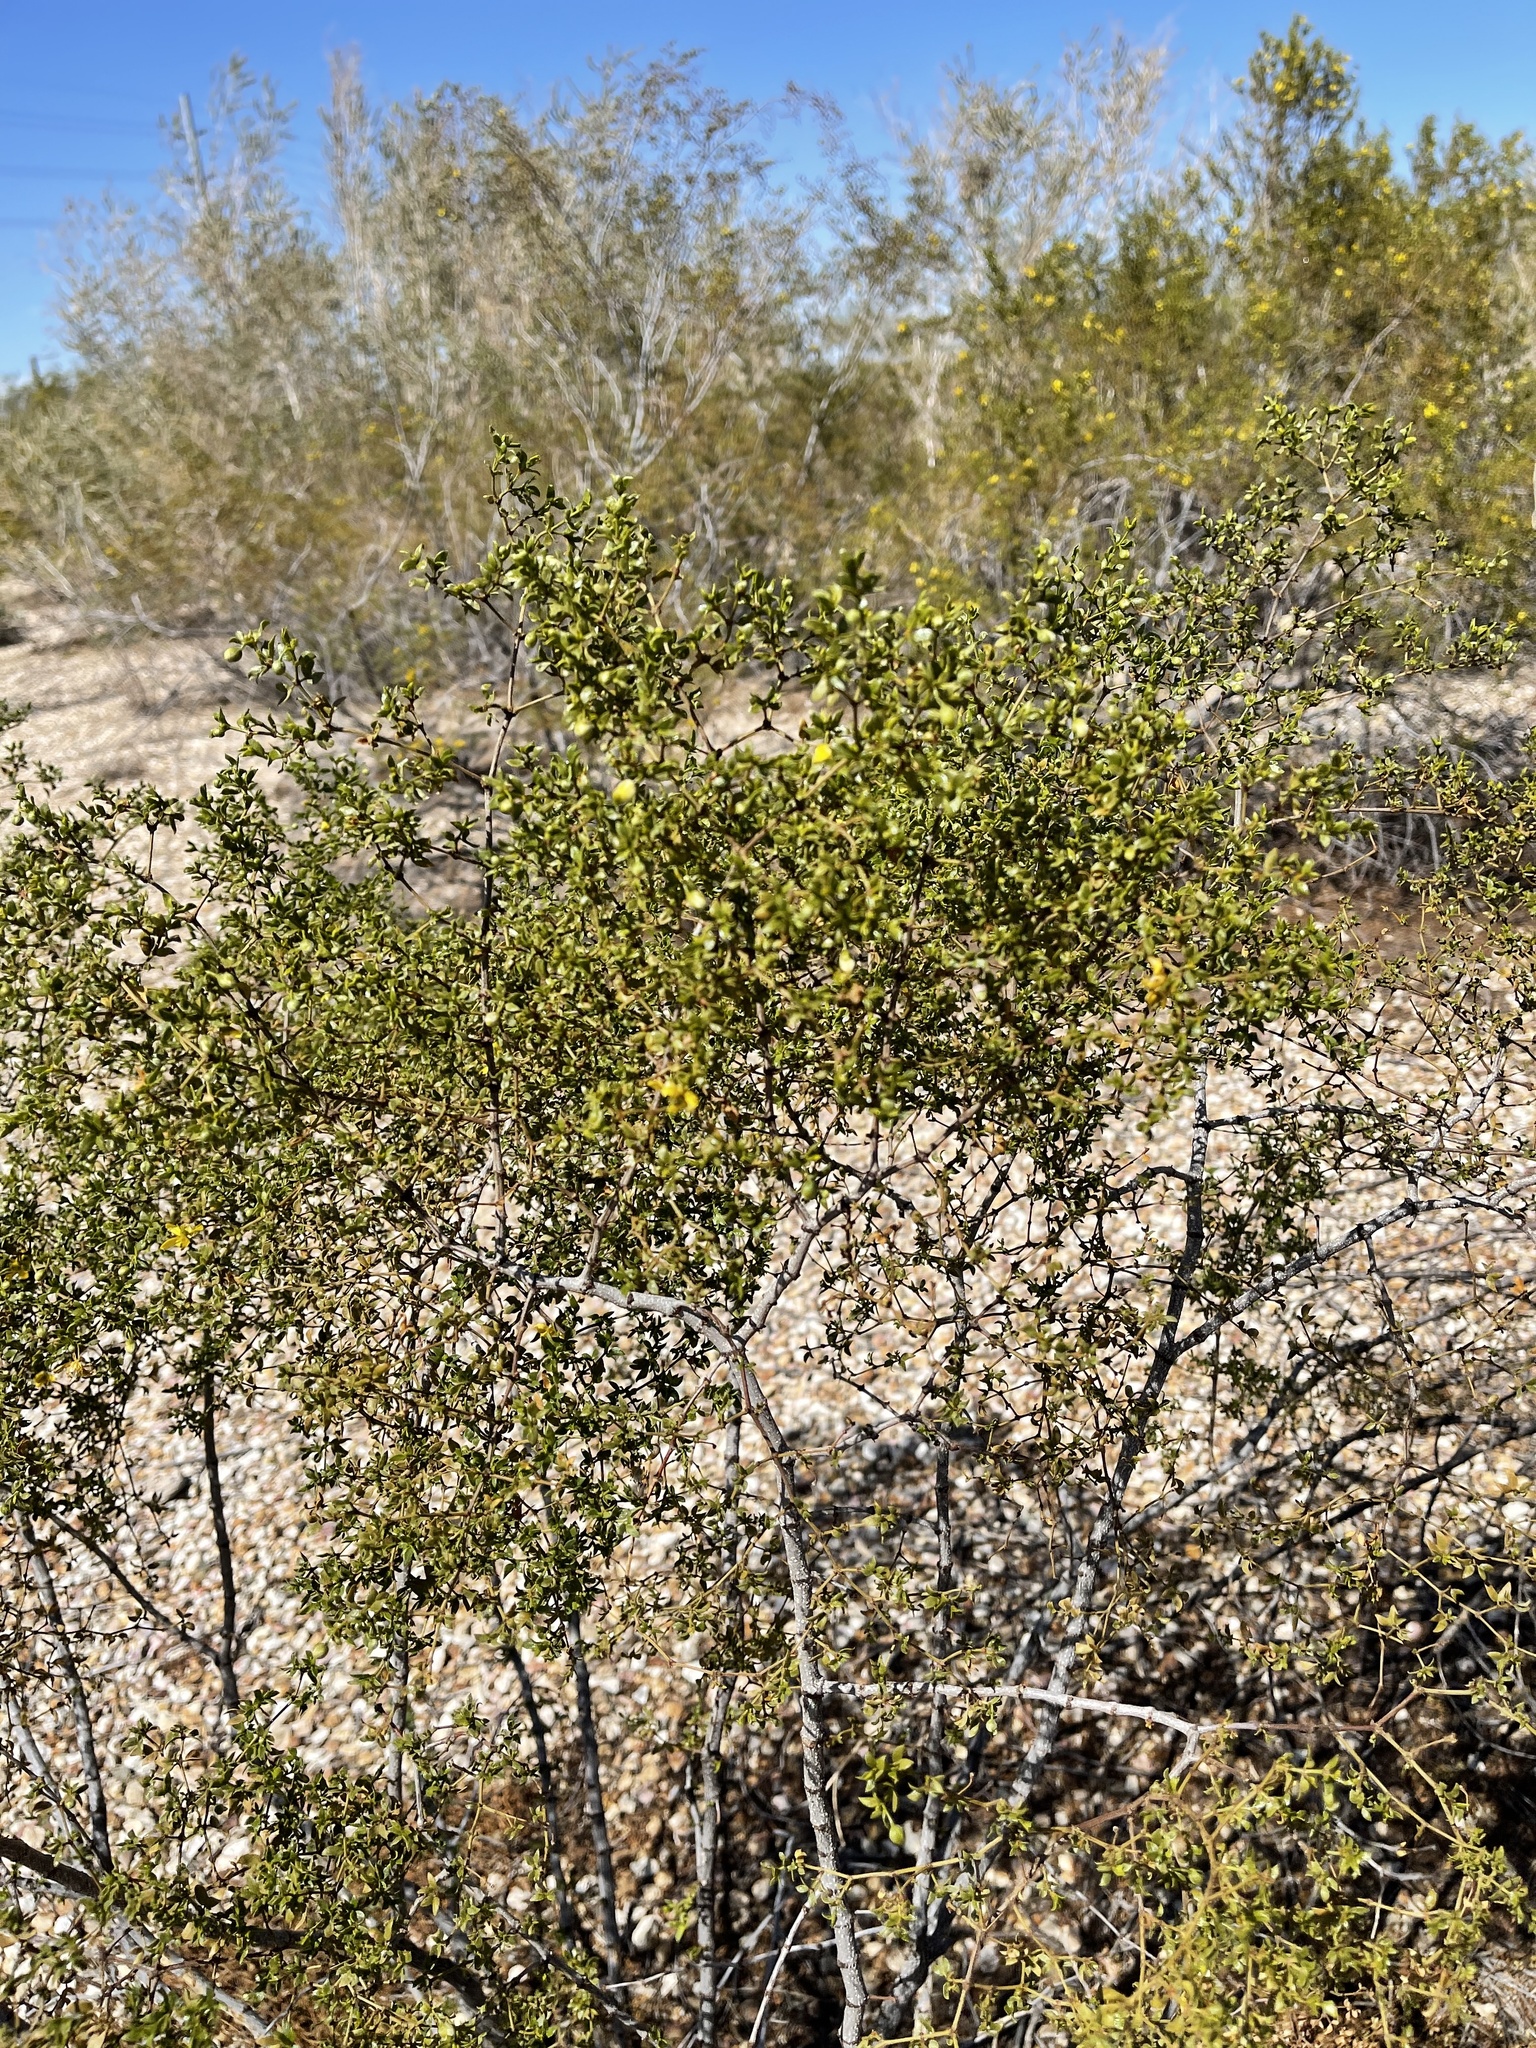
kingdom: Plantae
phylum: Tracheophyta
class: Magnoliopsida
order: Zygophyllales
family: Zygophyllaceae
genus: Larrea
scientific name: Larrea tridentata
